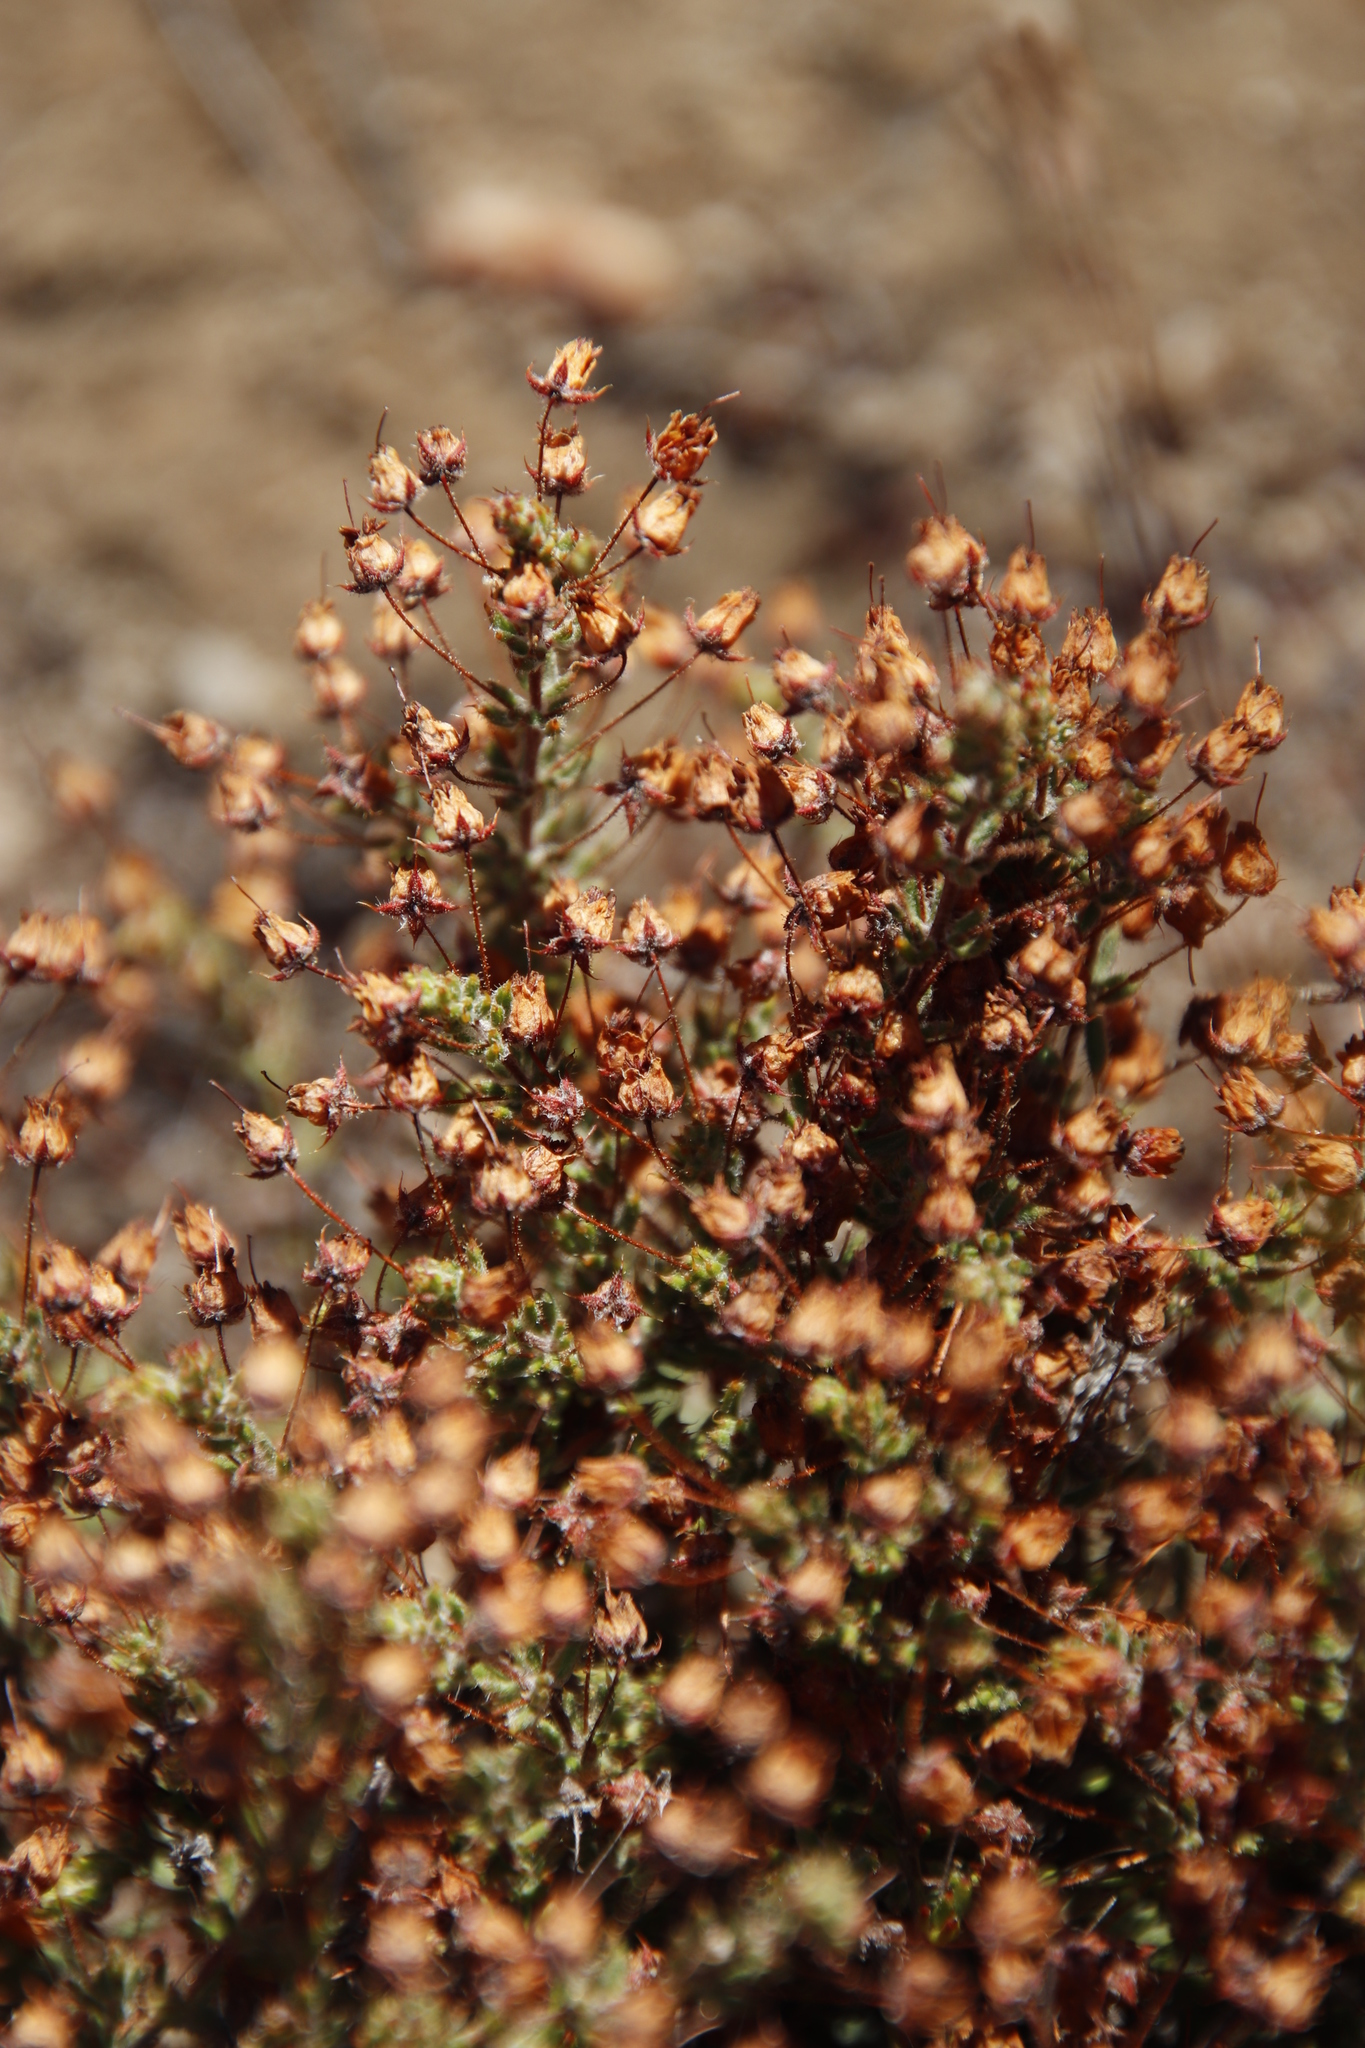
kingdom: Plantae
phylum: Tracheophyta
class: Magnoliopsida
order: Ericales
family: Ericaceae
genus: Erica
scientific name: Erica flacca
